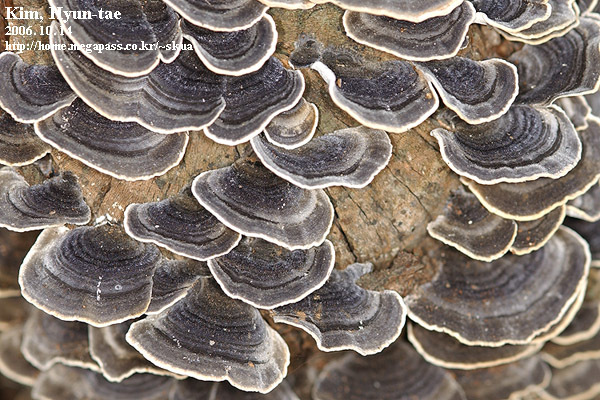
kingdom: Fungi
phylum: Basidiomycota
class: Agaricomycetes
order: Polyporales
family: Polyporaceae
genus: Trametes
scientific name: Trametes versicolor
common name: Turkeytail
